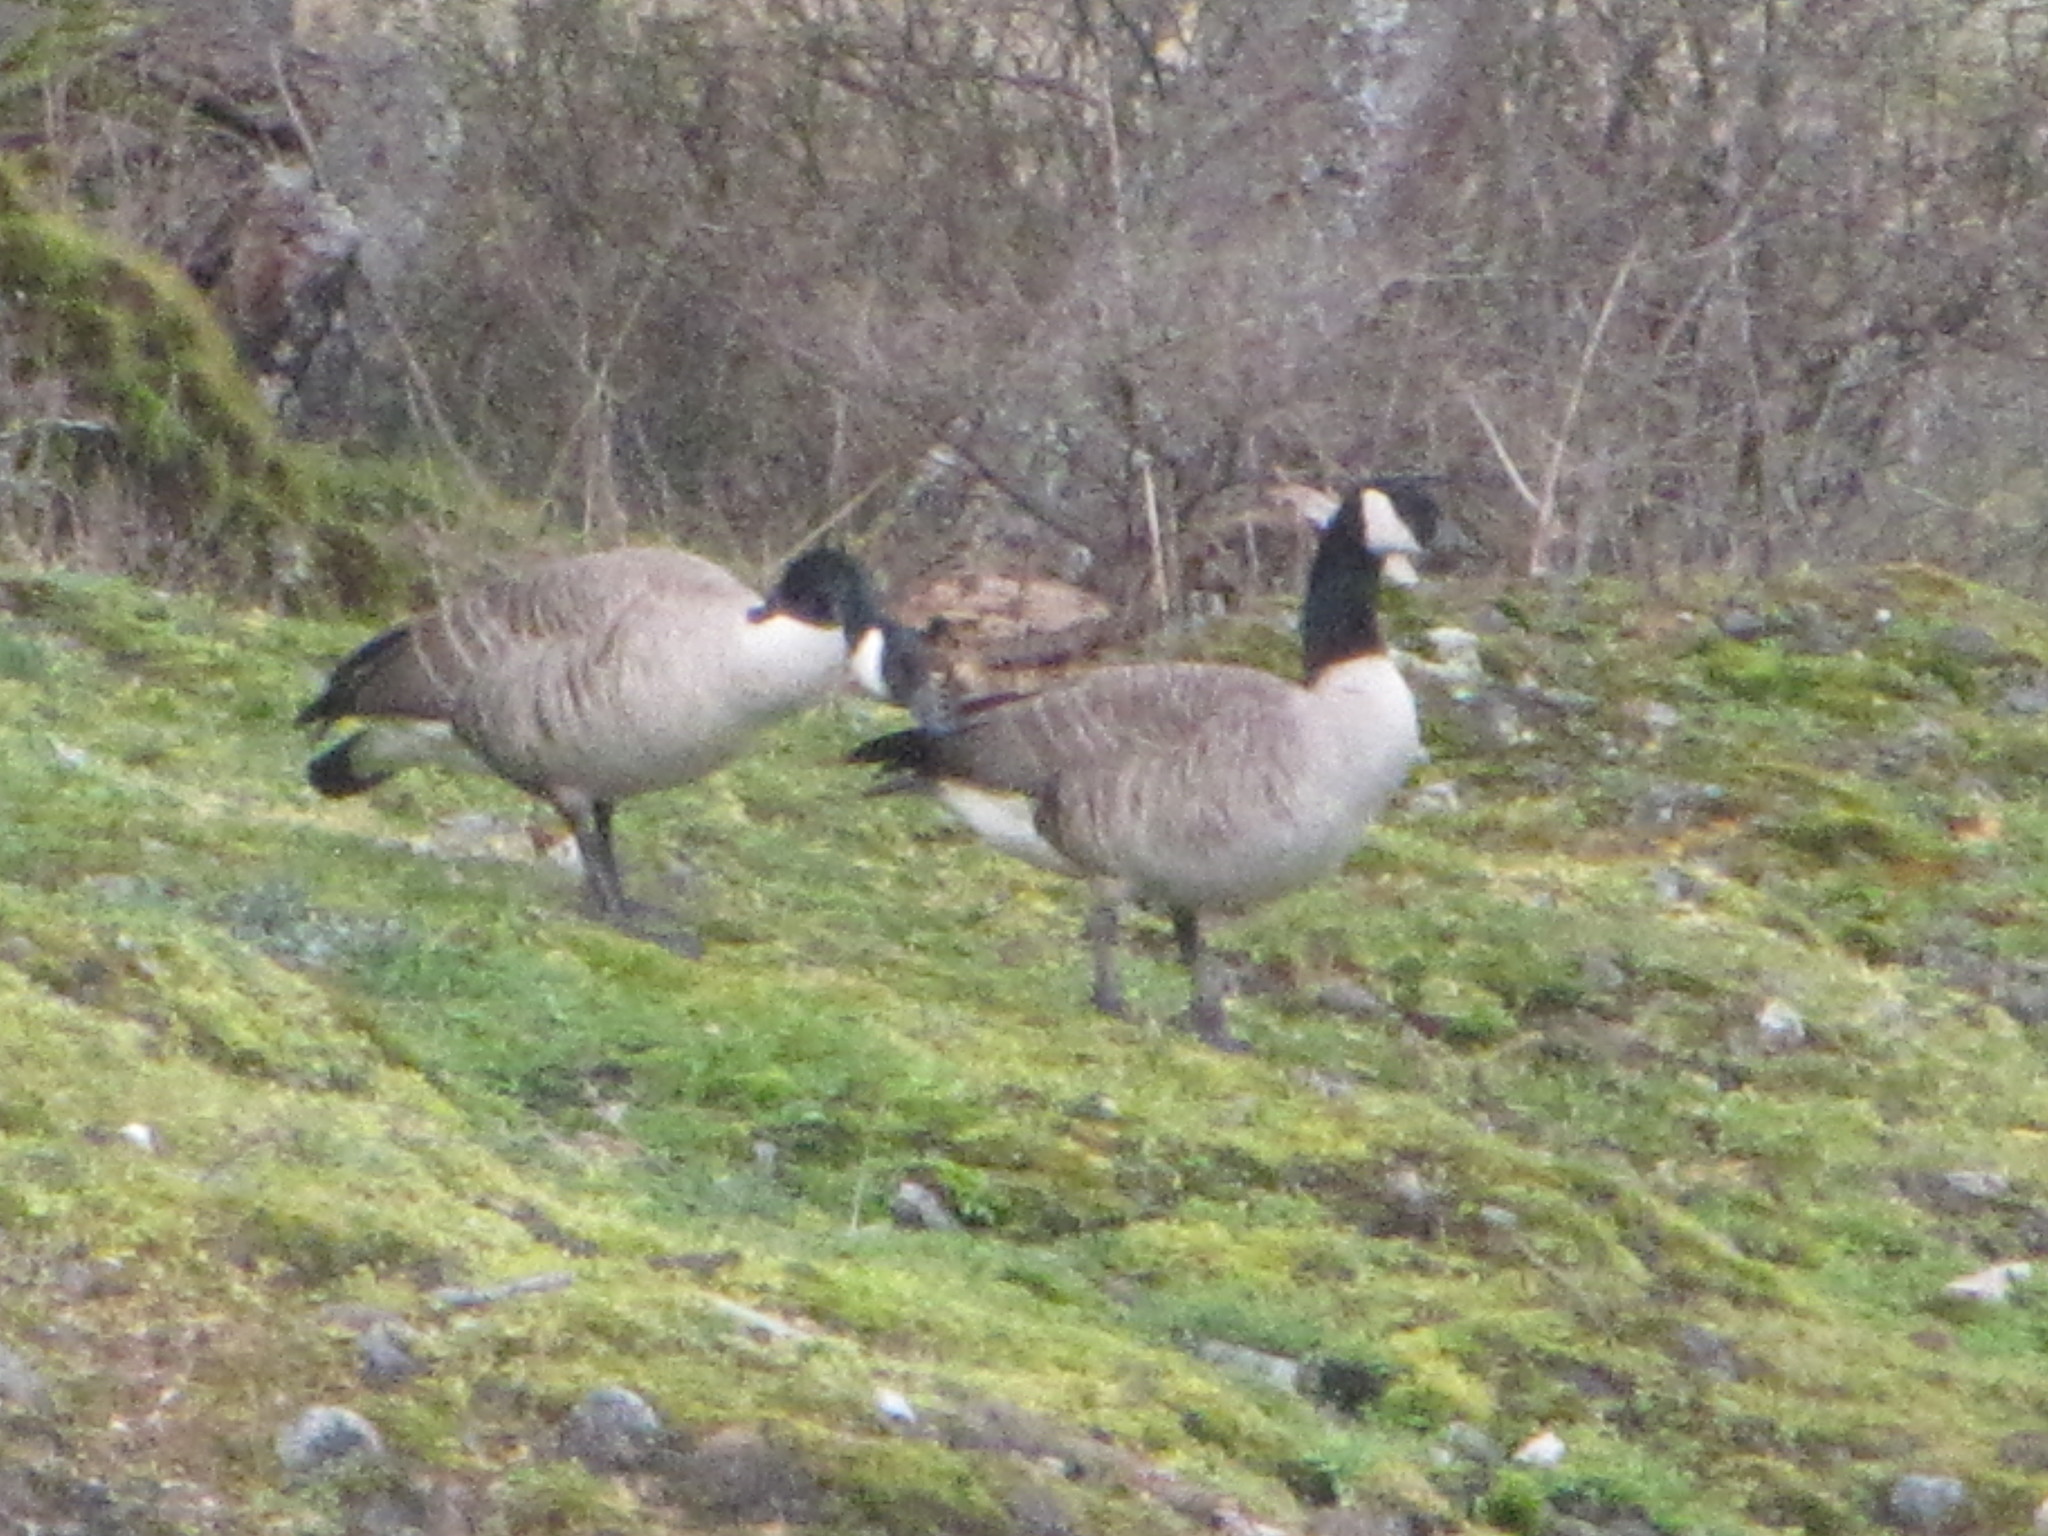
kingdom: Animalia
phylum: Chordata
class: Aves
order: Anseriformes
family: Anatidae
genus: Branta
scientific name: Branta canadensis
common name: Canada goose
